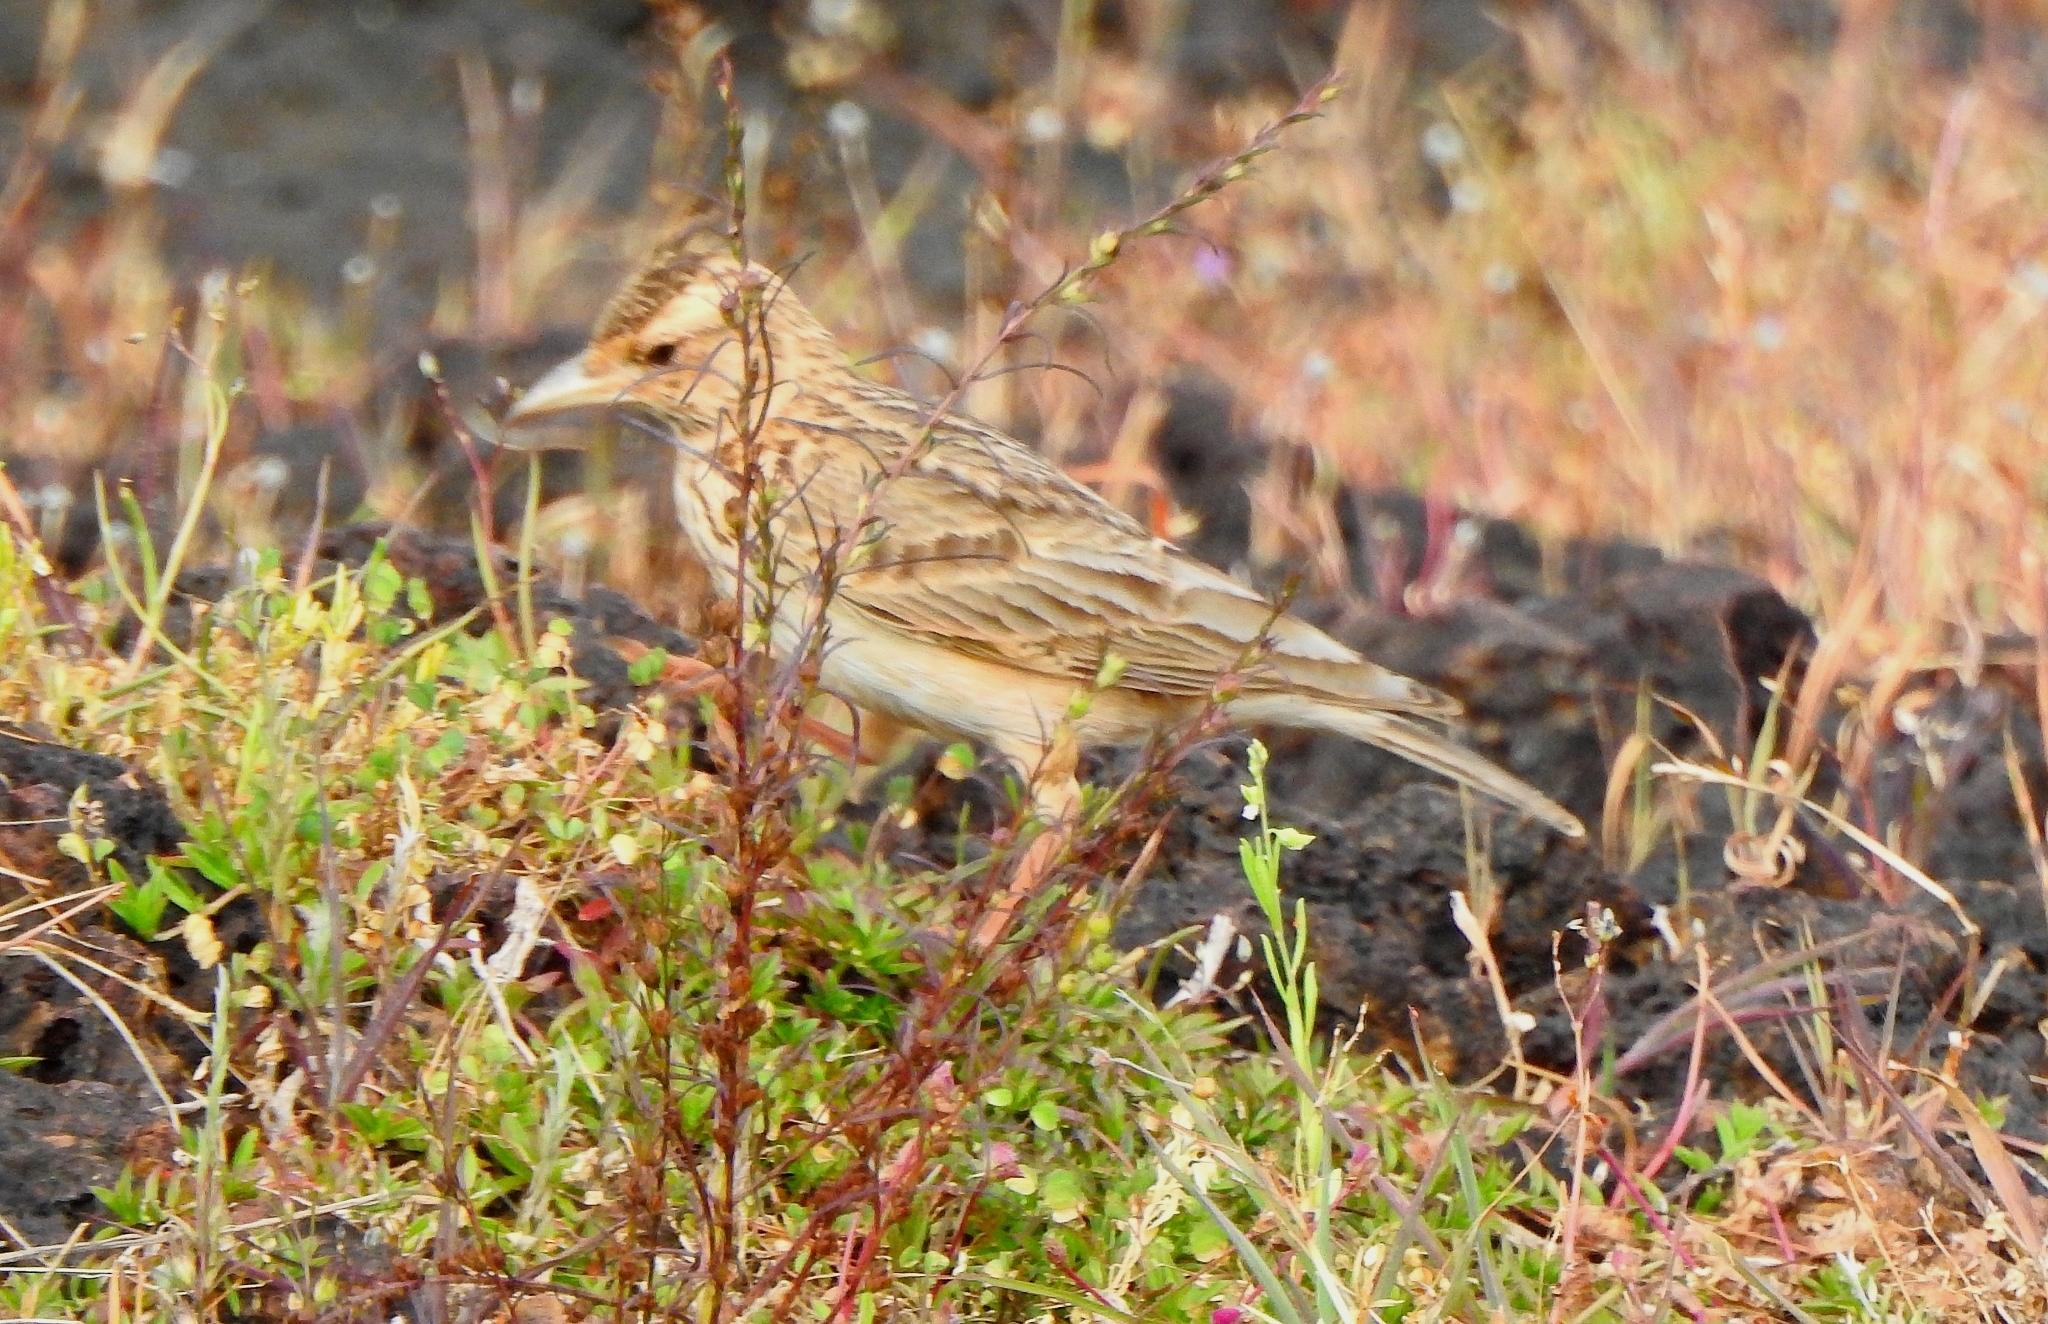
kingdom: Animalia
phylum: Chordata
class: Aves
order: Passeriformes
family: Alaudidae
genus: Alauda
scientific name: Alauda gulgula
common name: Oriental skylark
